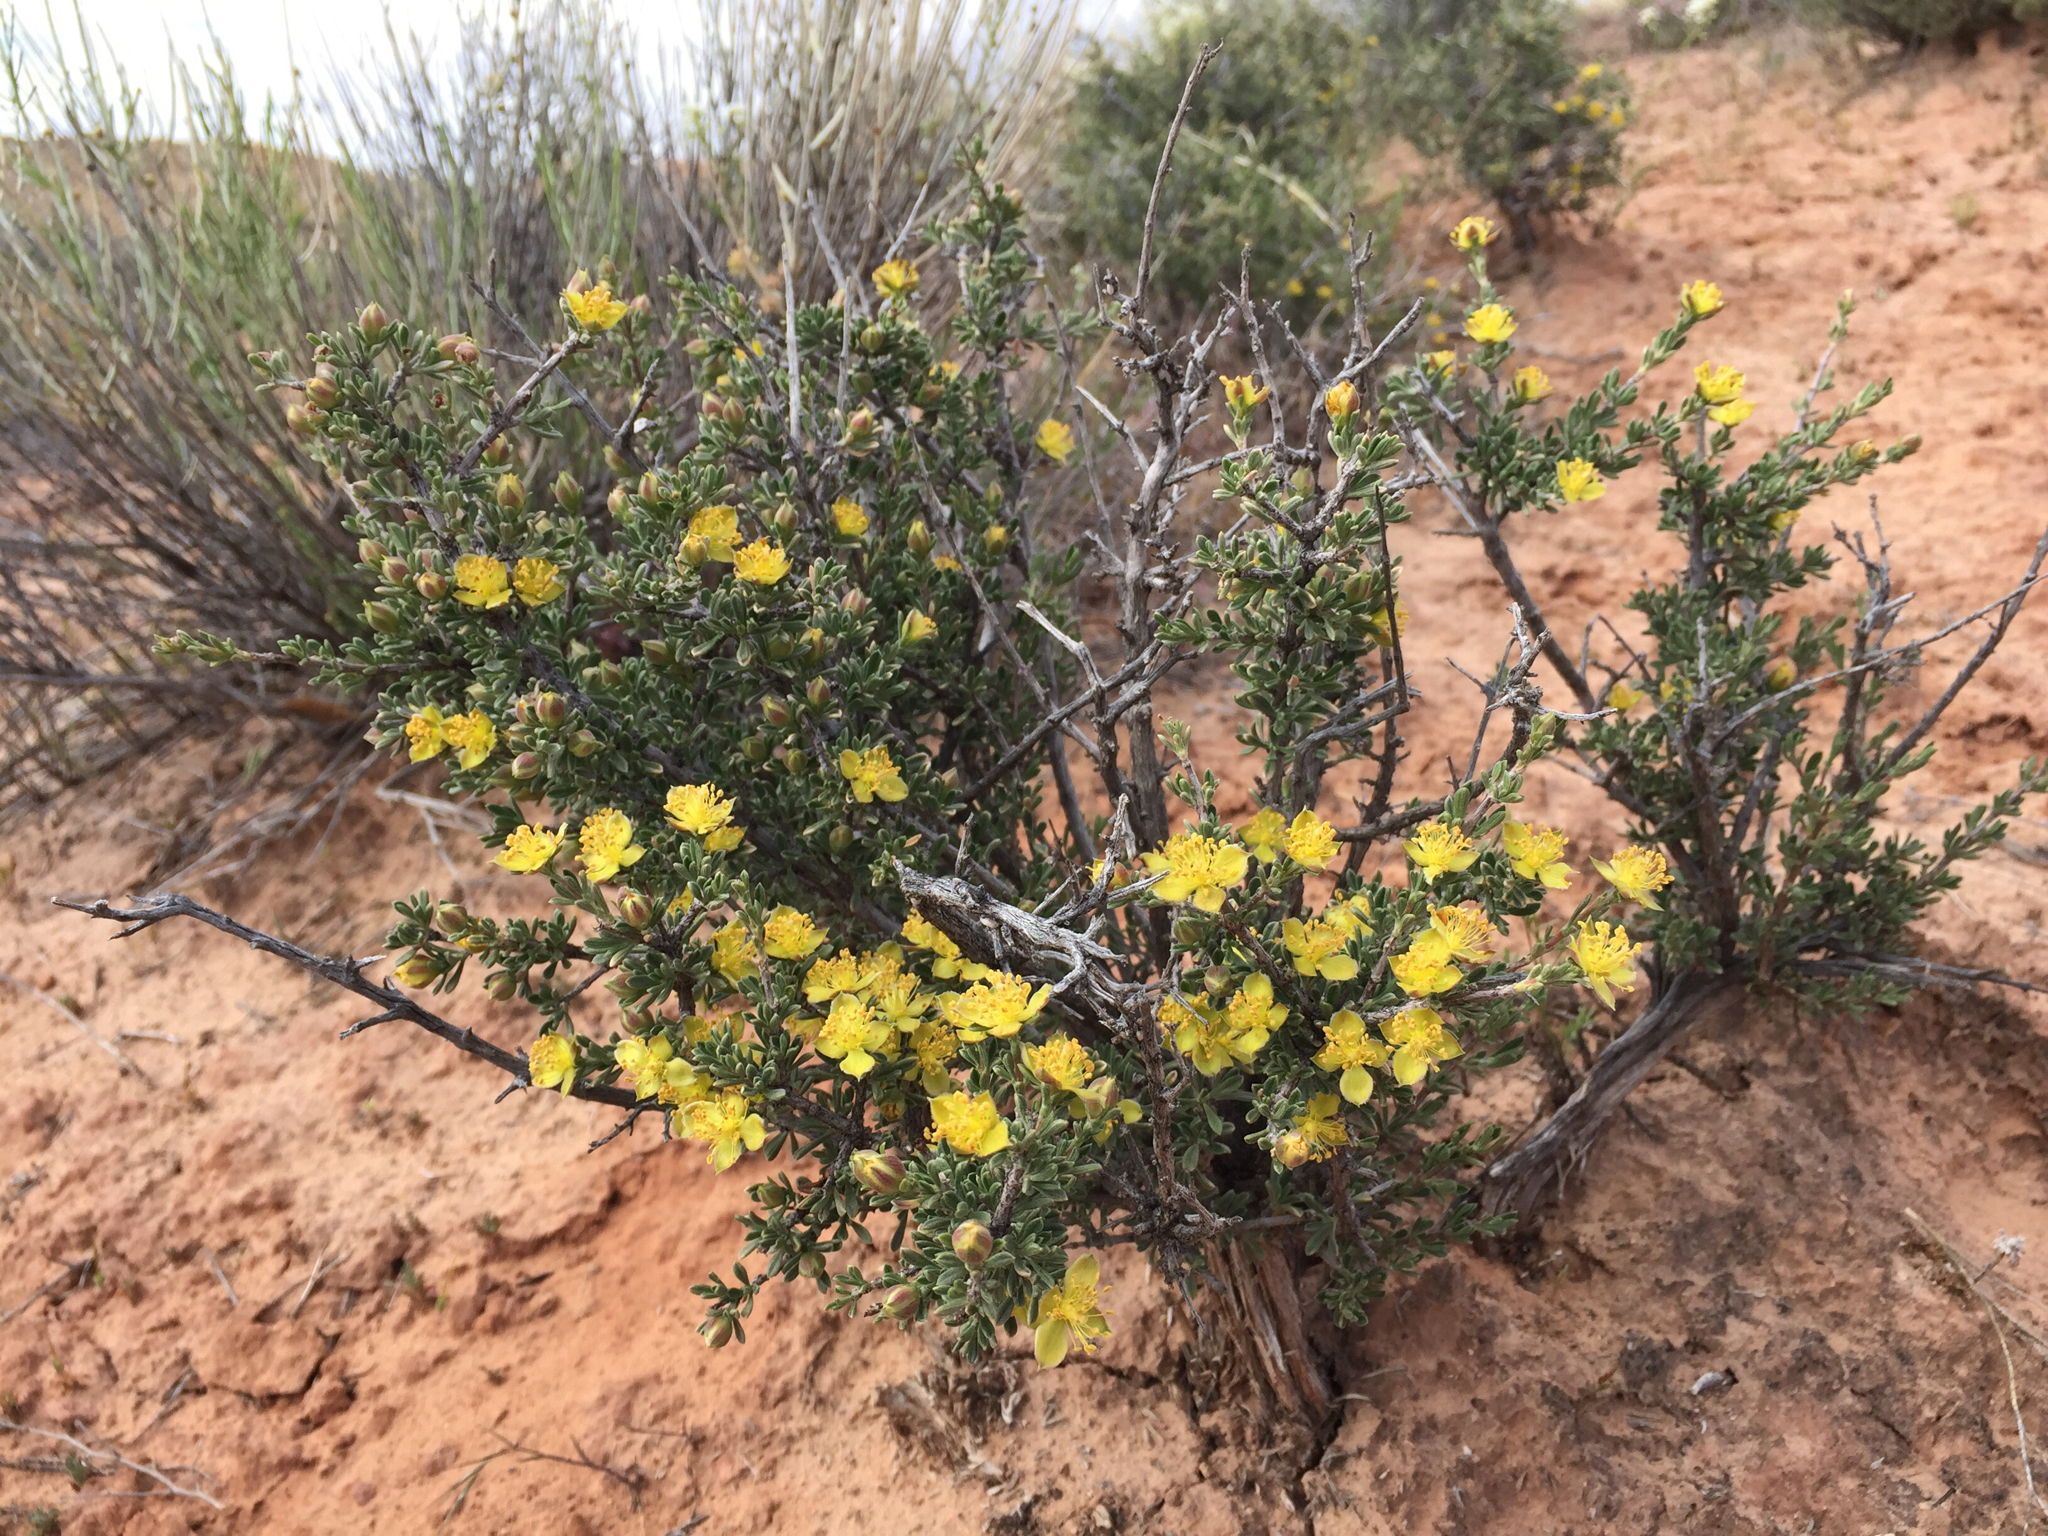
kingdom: Plantae
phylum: Tracheophyta
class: Magnoliopsida
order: Rosales
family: Rosaceae
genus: Coleogyne
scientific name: Coleogyne ramosissima
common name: Blackbrush
